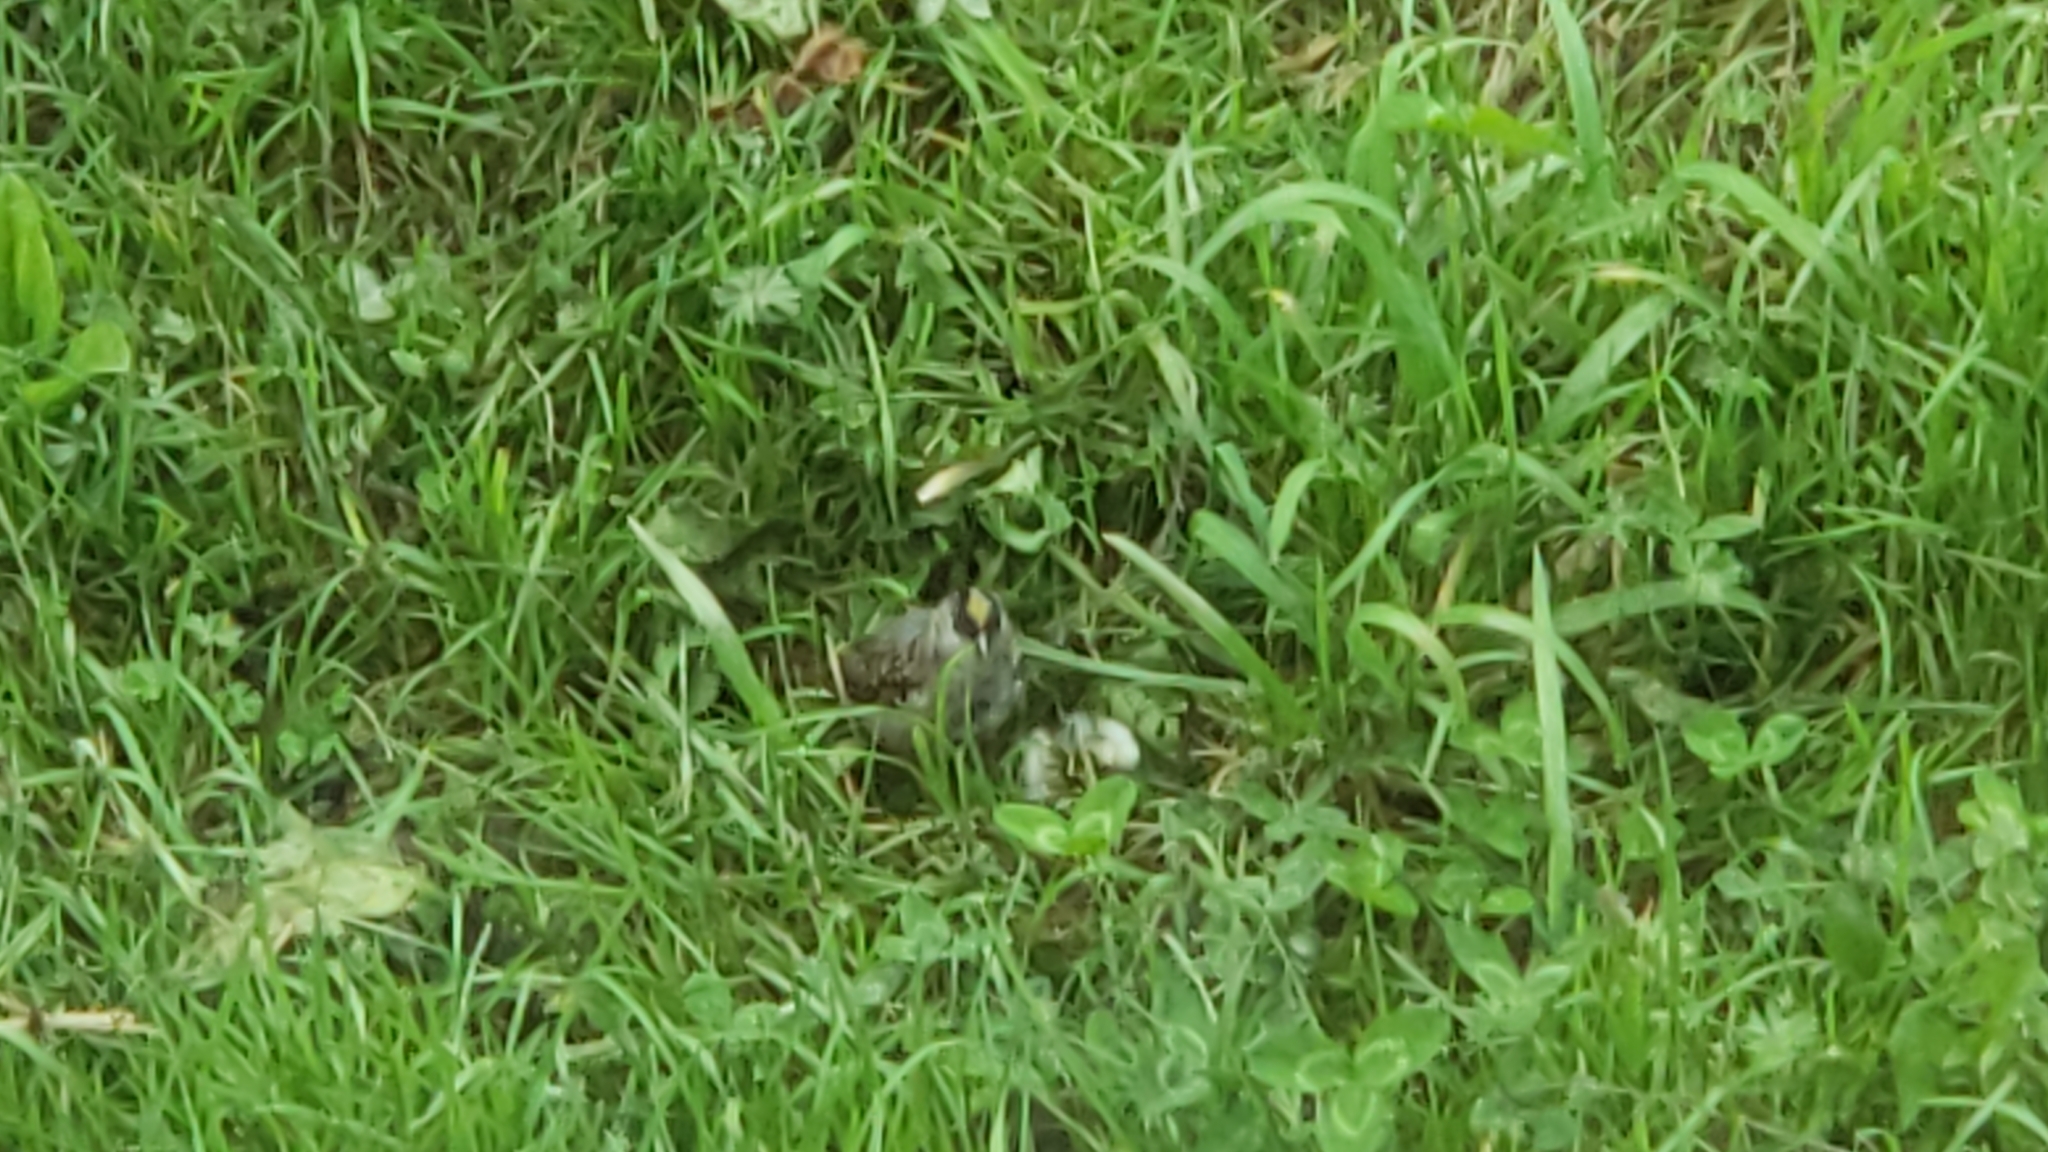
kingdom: Animalia
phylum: Chordata
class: Aves
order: Passeriformes
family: Passerellidae
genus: Zonotrichia
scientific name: Zonotrichia atricapilla
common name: Golden-crowned sparrow
